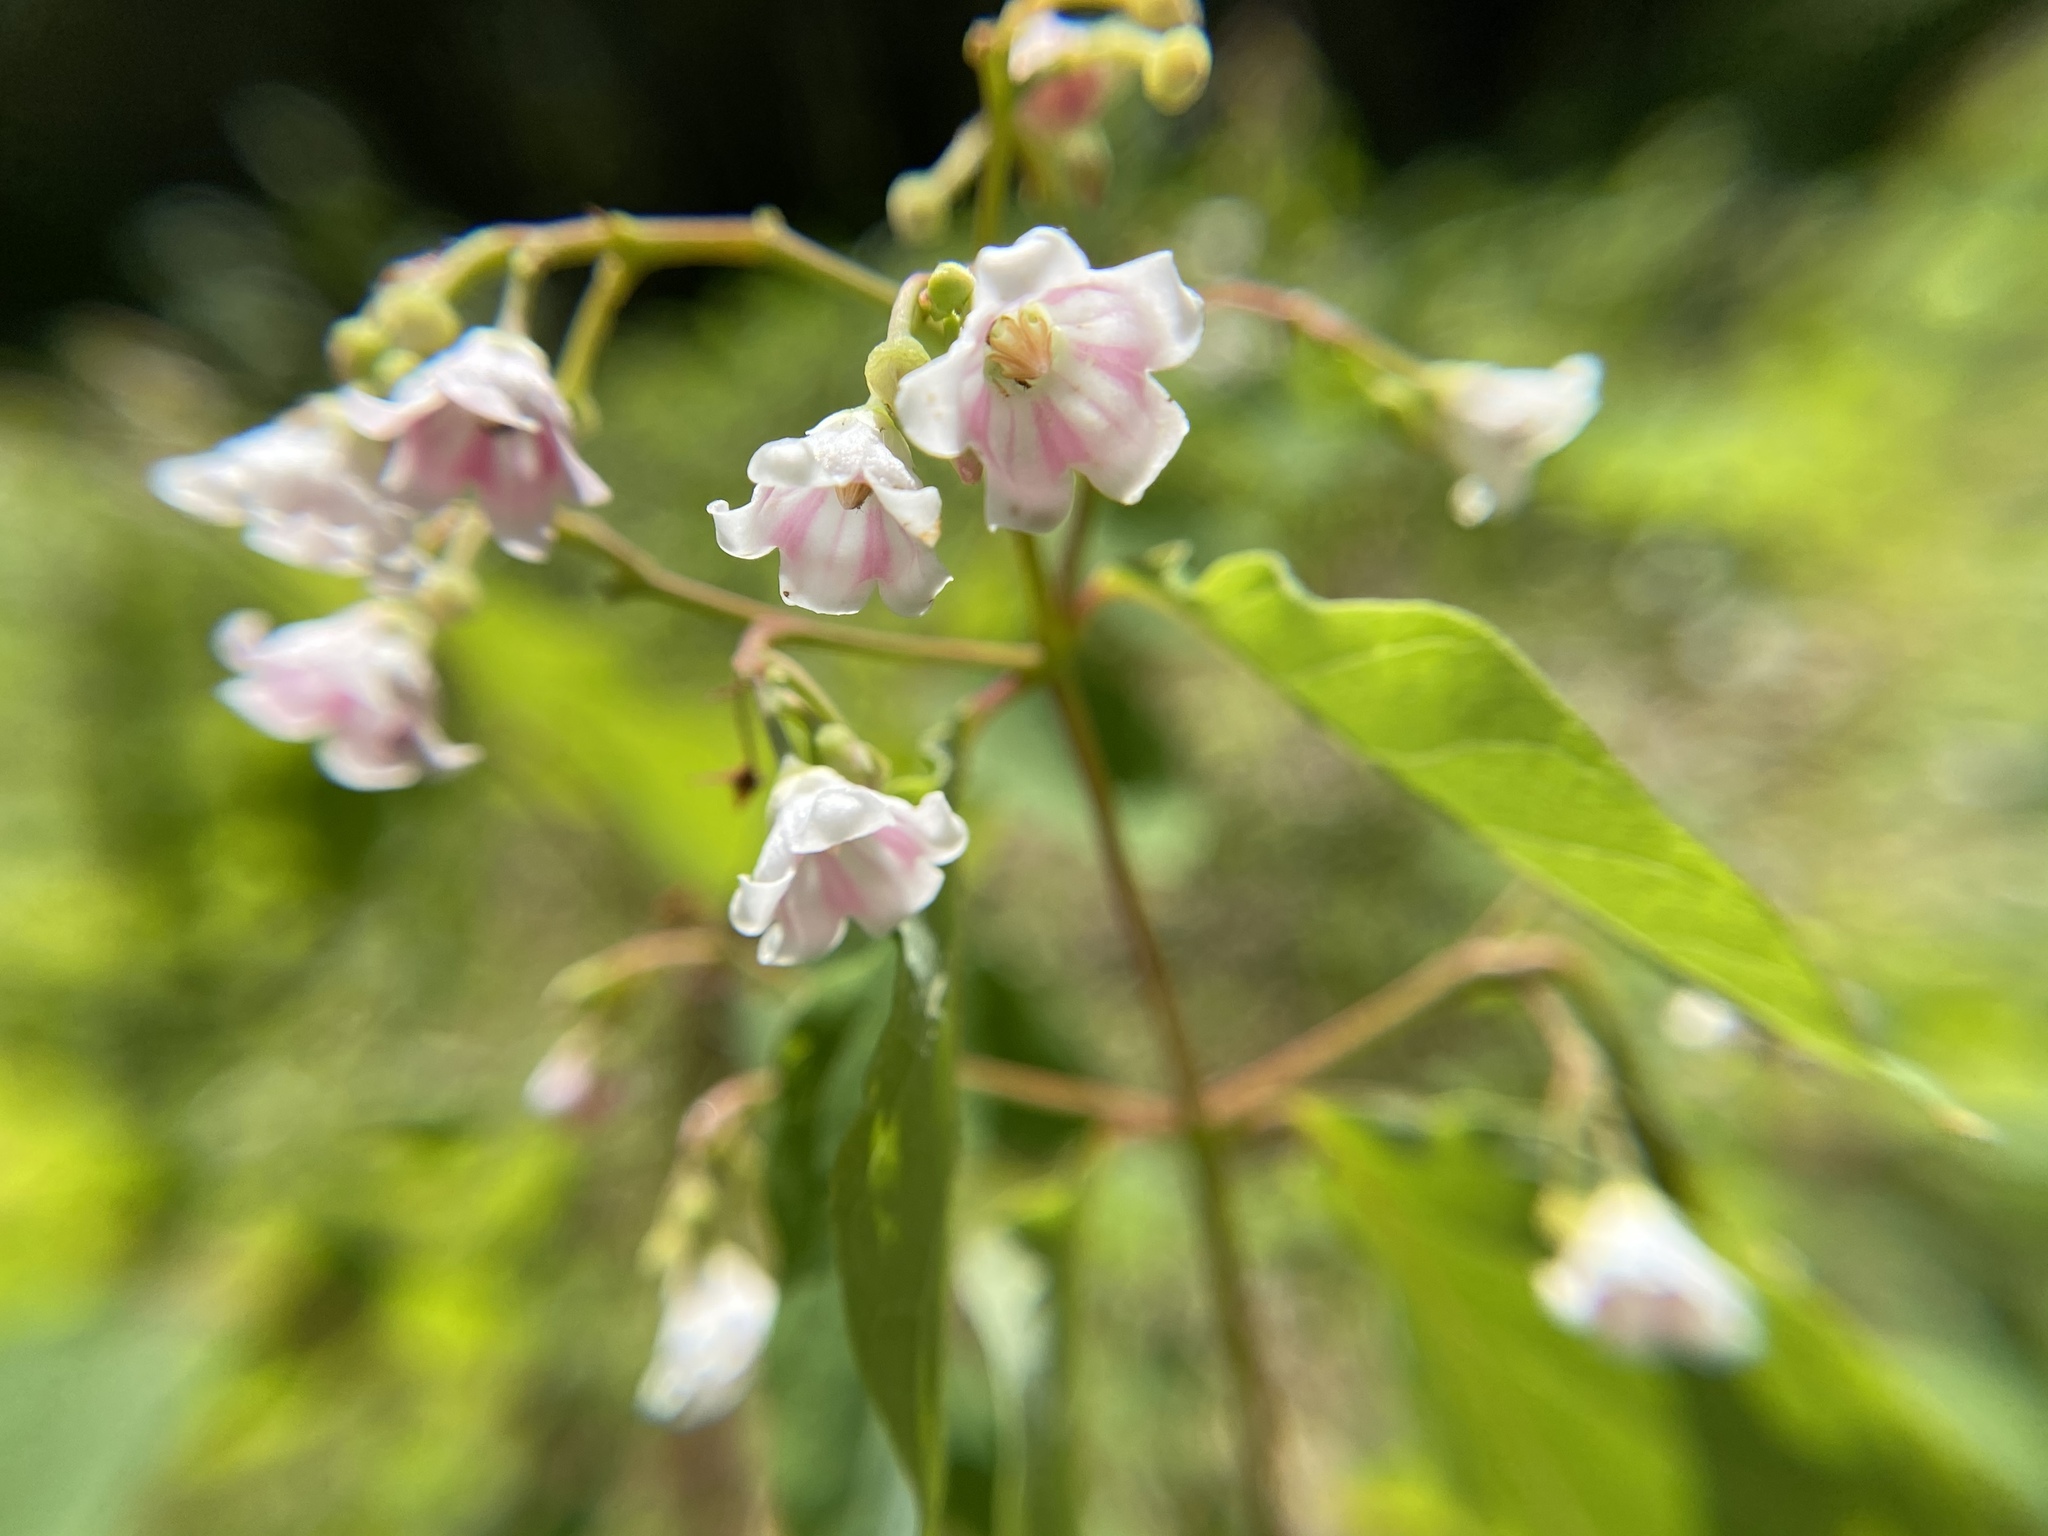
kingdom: Plantae
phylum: Tracheophyta
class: Magnoliopsida
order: Gentianales
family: Apocynaceae
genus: Apocynum
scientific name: Apocynum androsaemifolium
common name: Spreading dogbane
